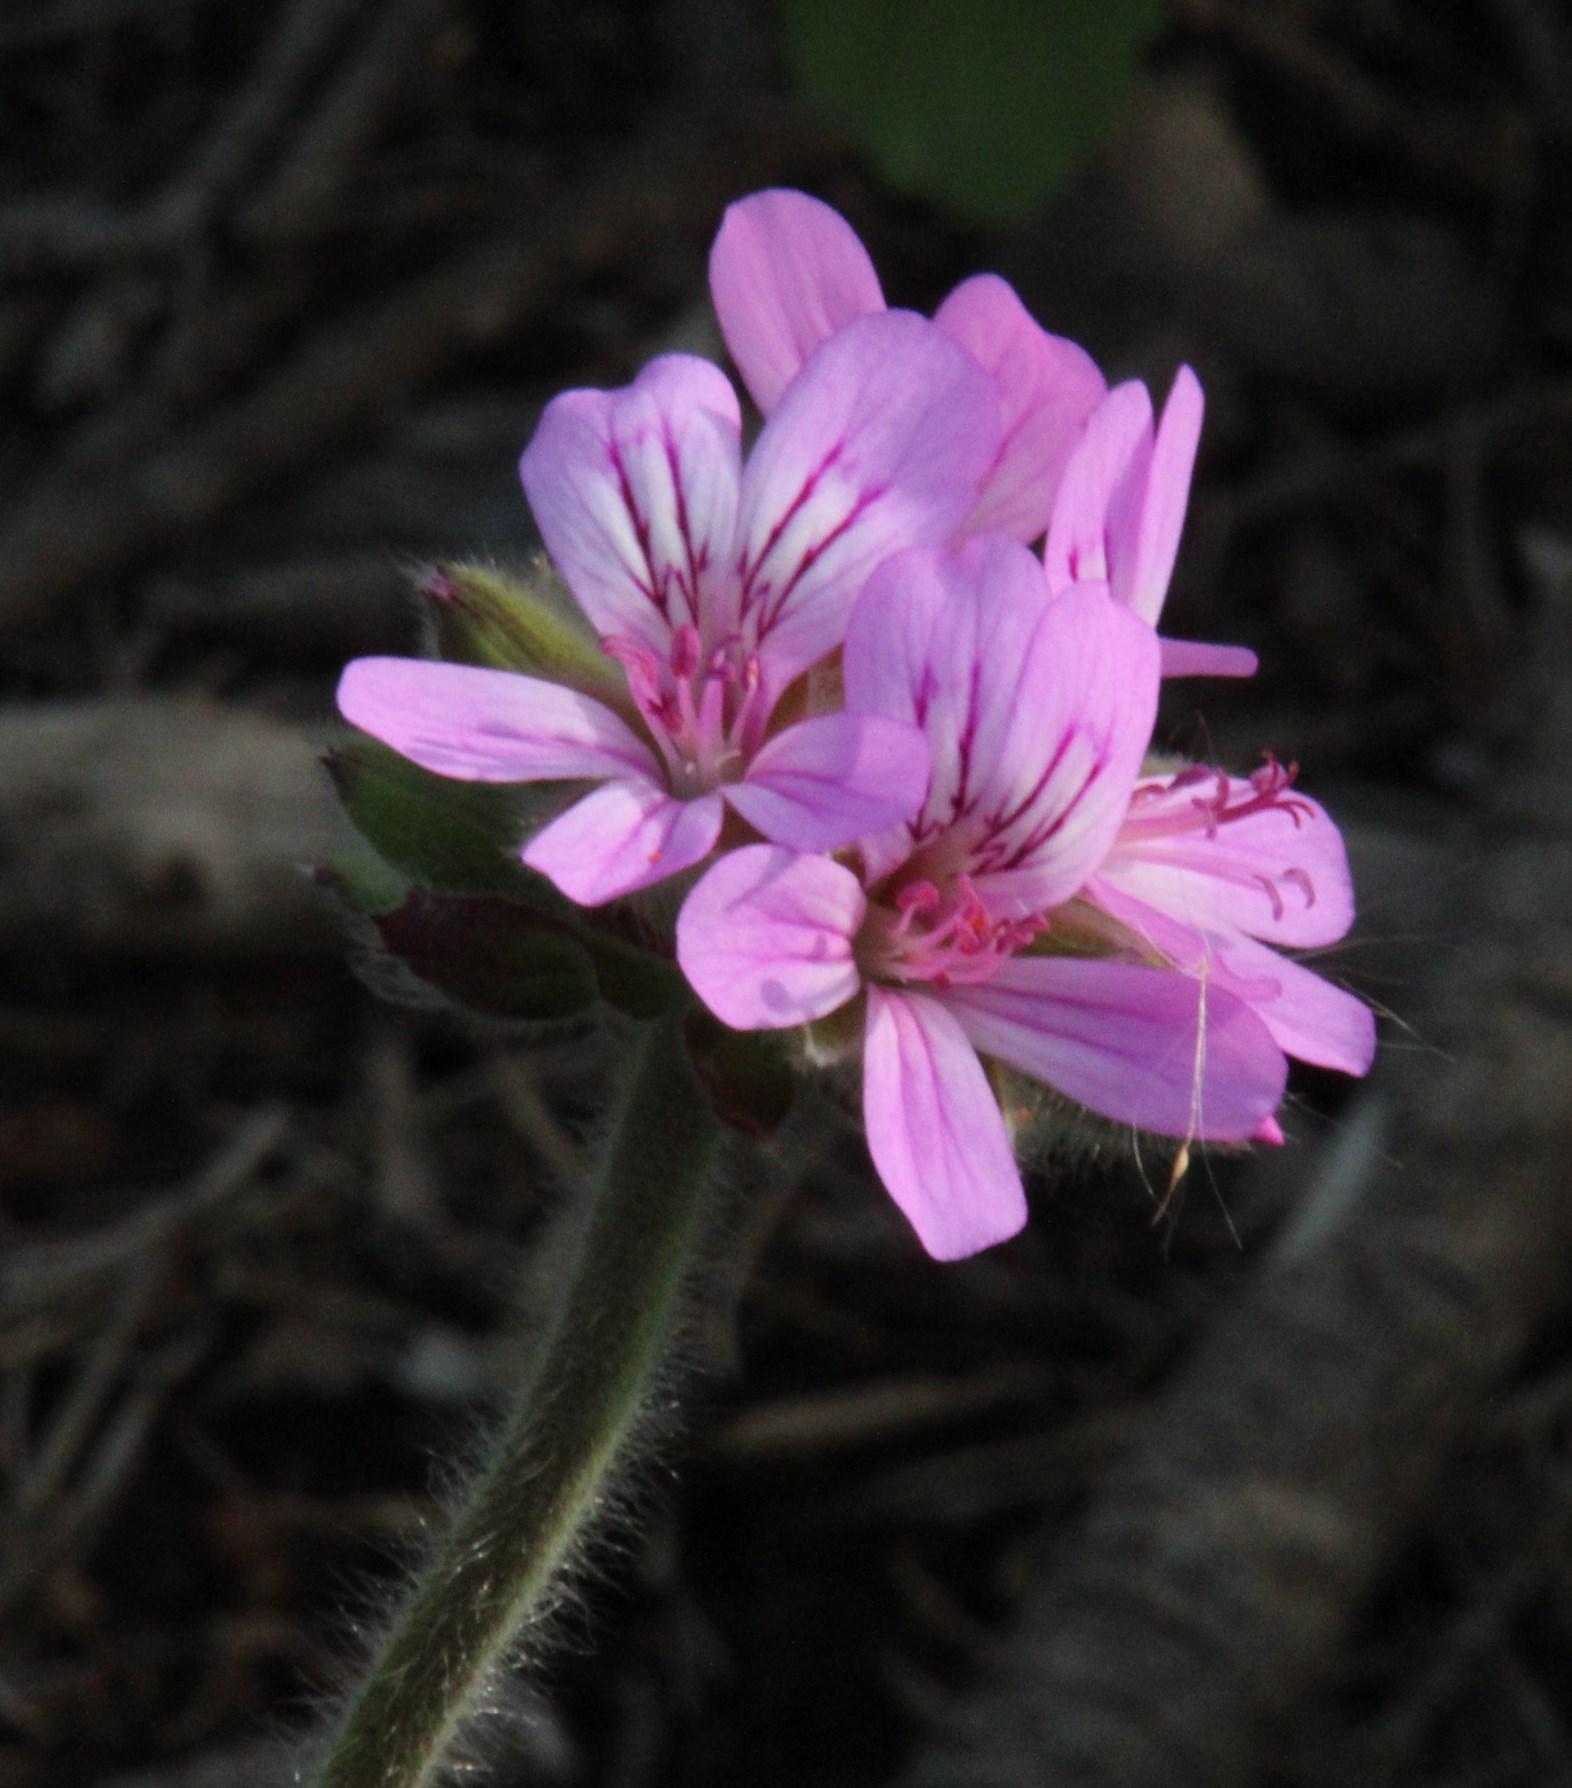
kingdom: Plantae
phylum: Tracheophyta
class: Magnoliopsida
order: Geraniales
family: Geraniaceae
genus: Pelargonium
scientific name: Pelargonium capitatum
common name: Rose scented geranium
